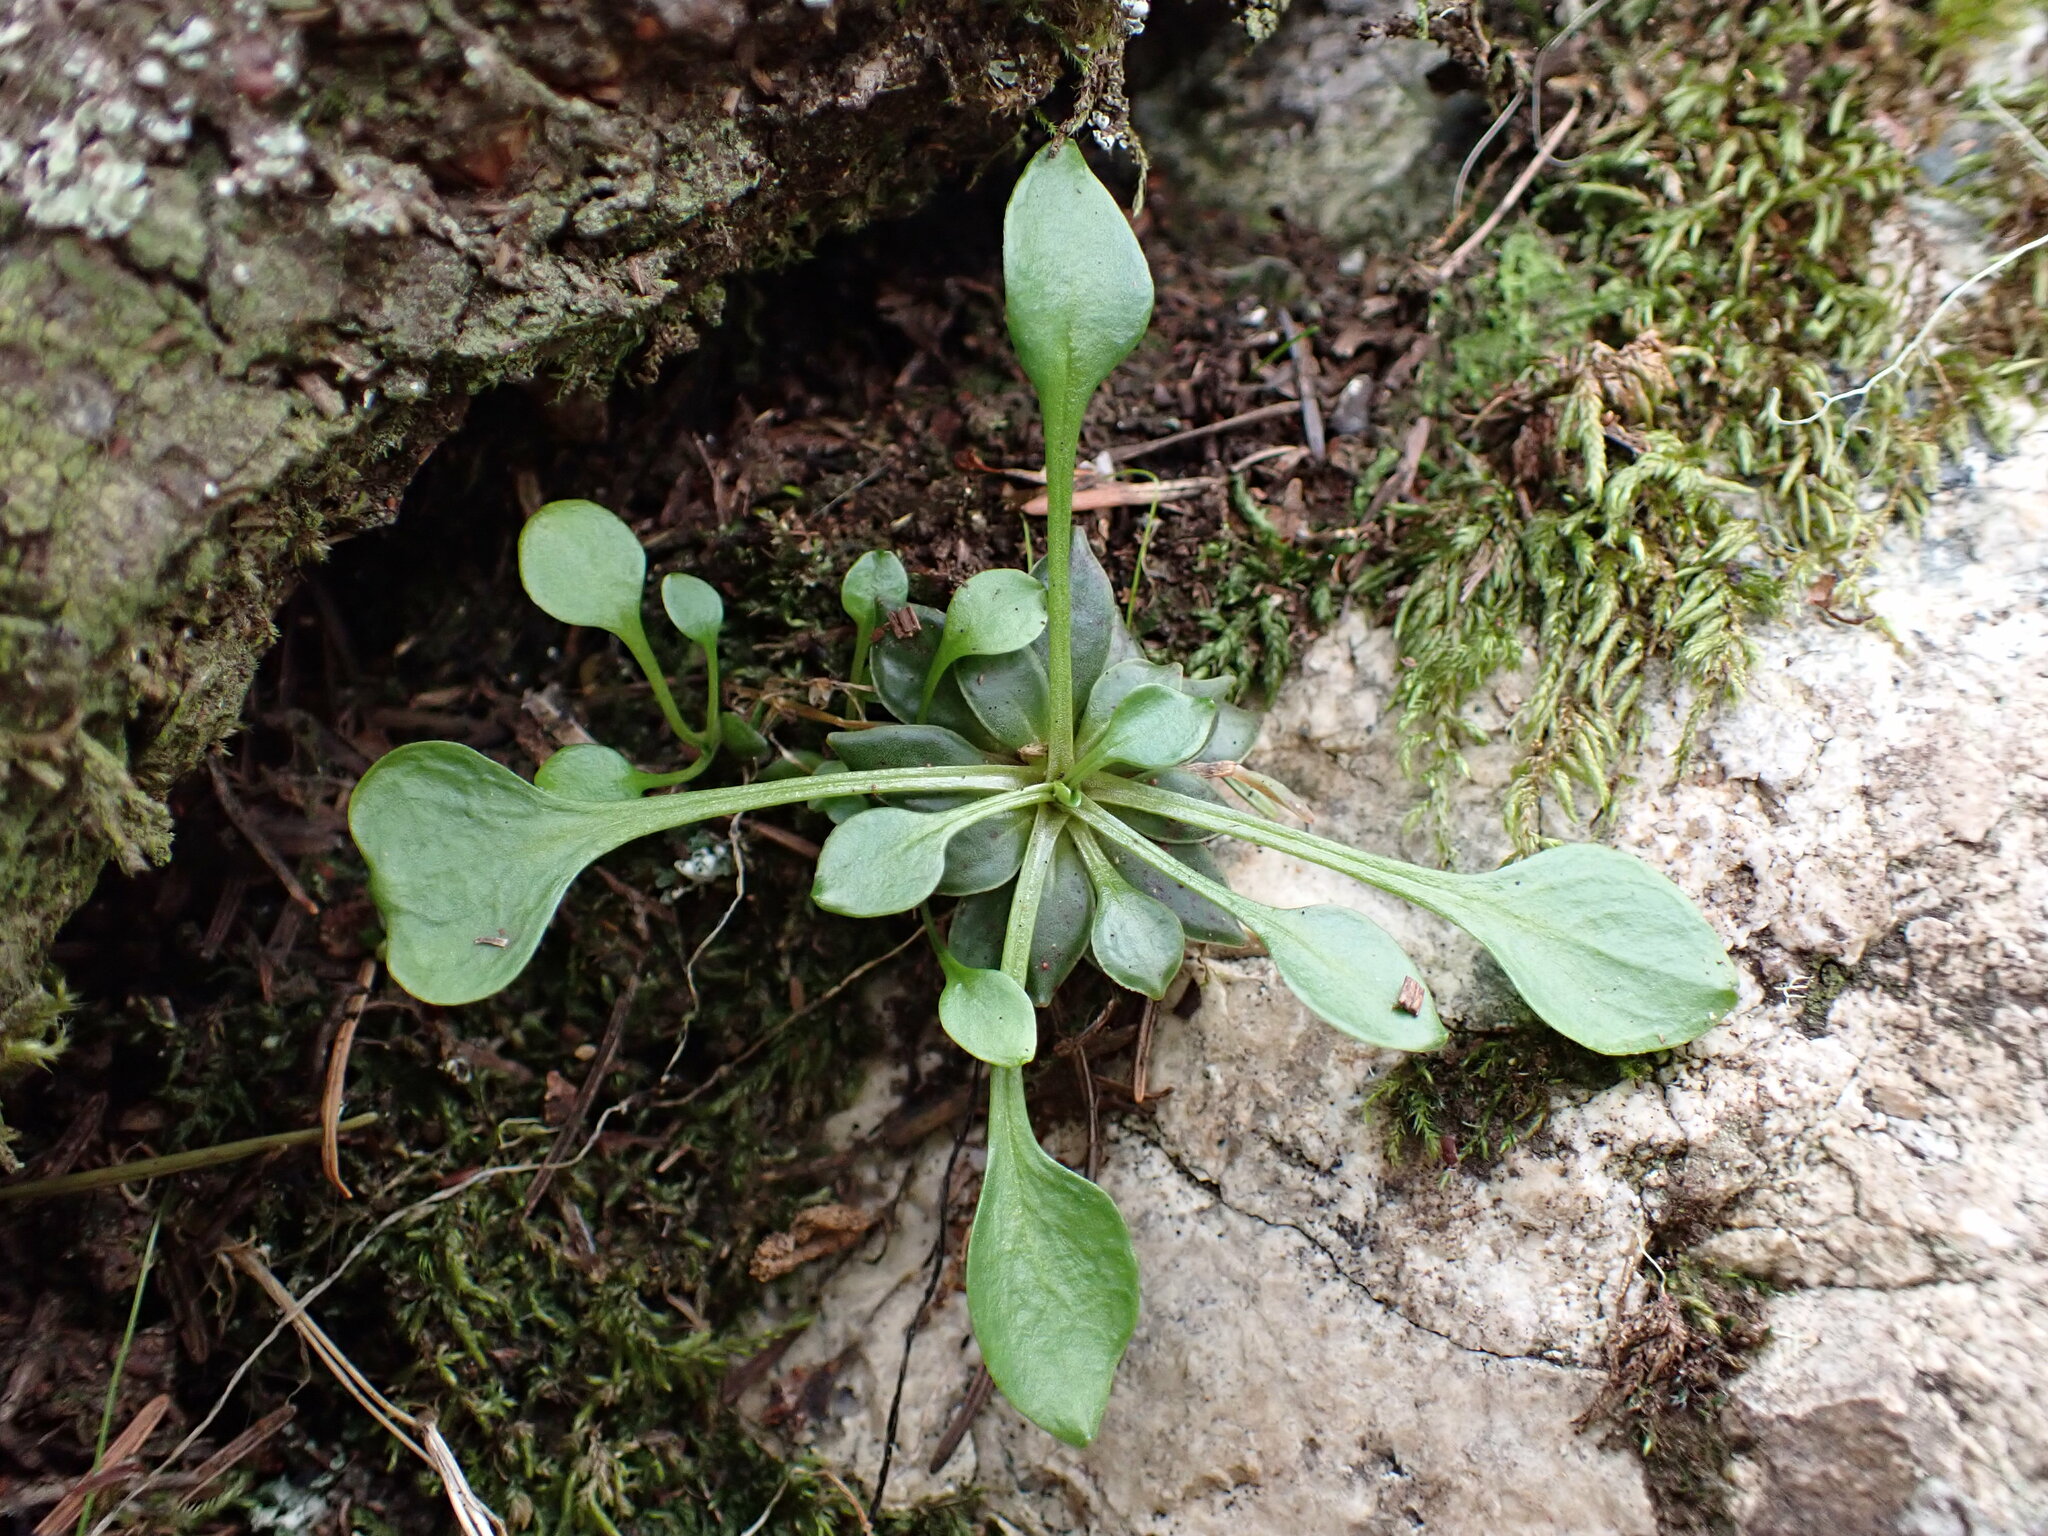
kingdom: Plantae
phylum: Tracheophyta
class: Magnoliopsida
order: Caryophyllales
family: Montiaceae
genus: Montia
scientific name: Montia parvifolia
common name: Small-leaved blinks
